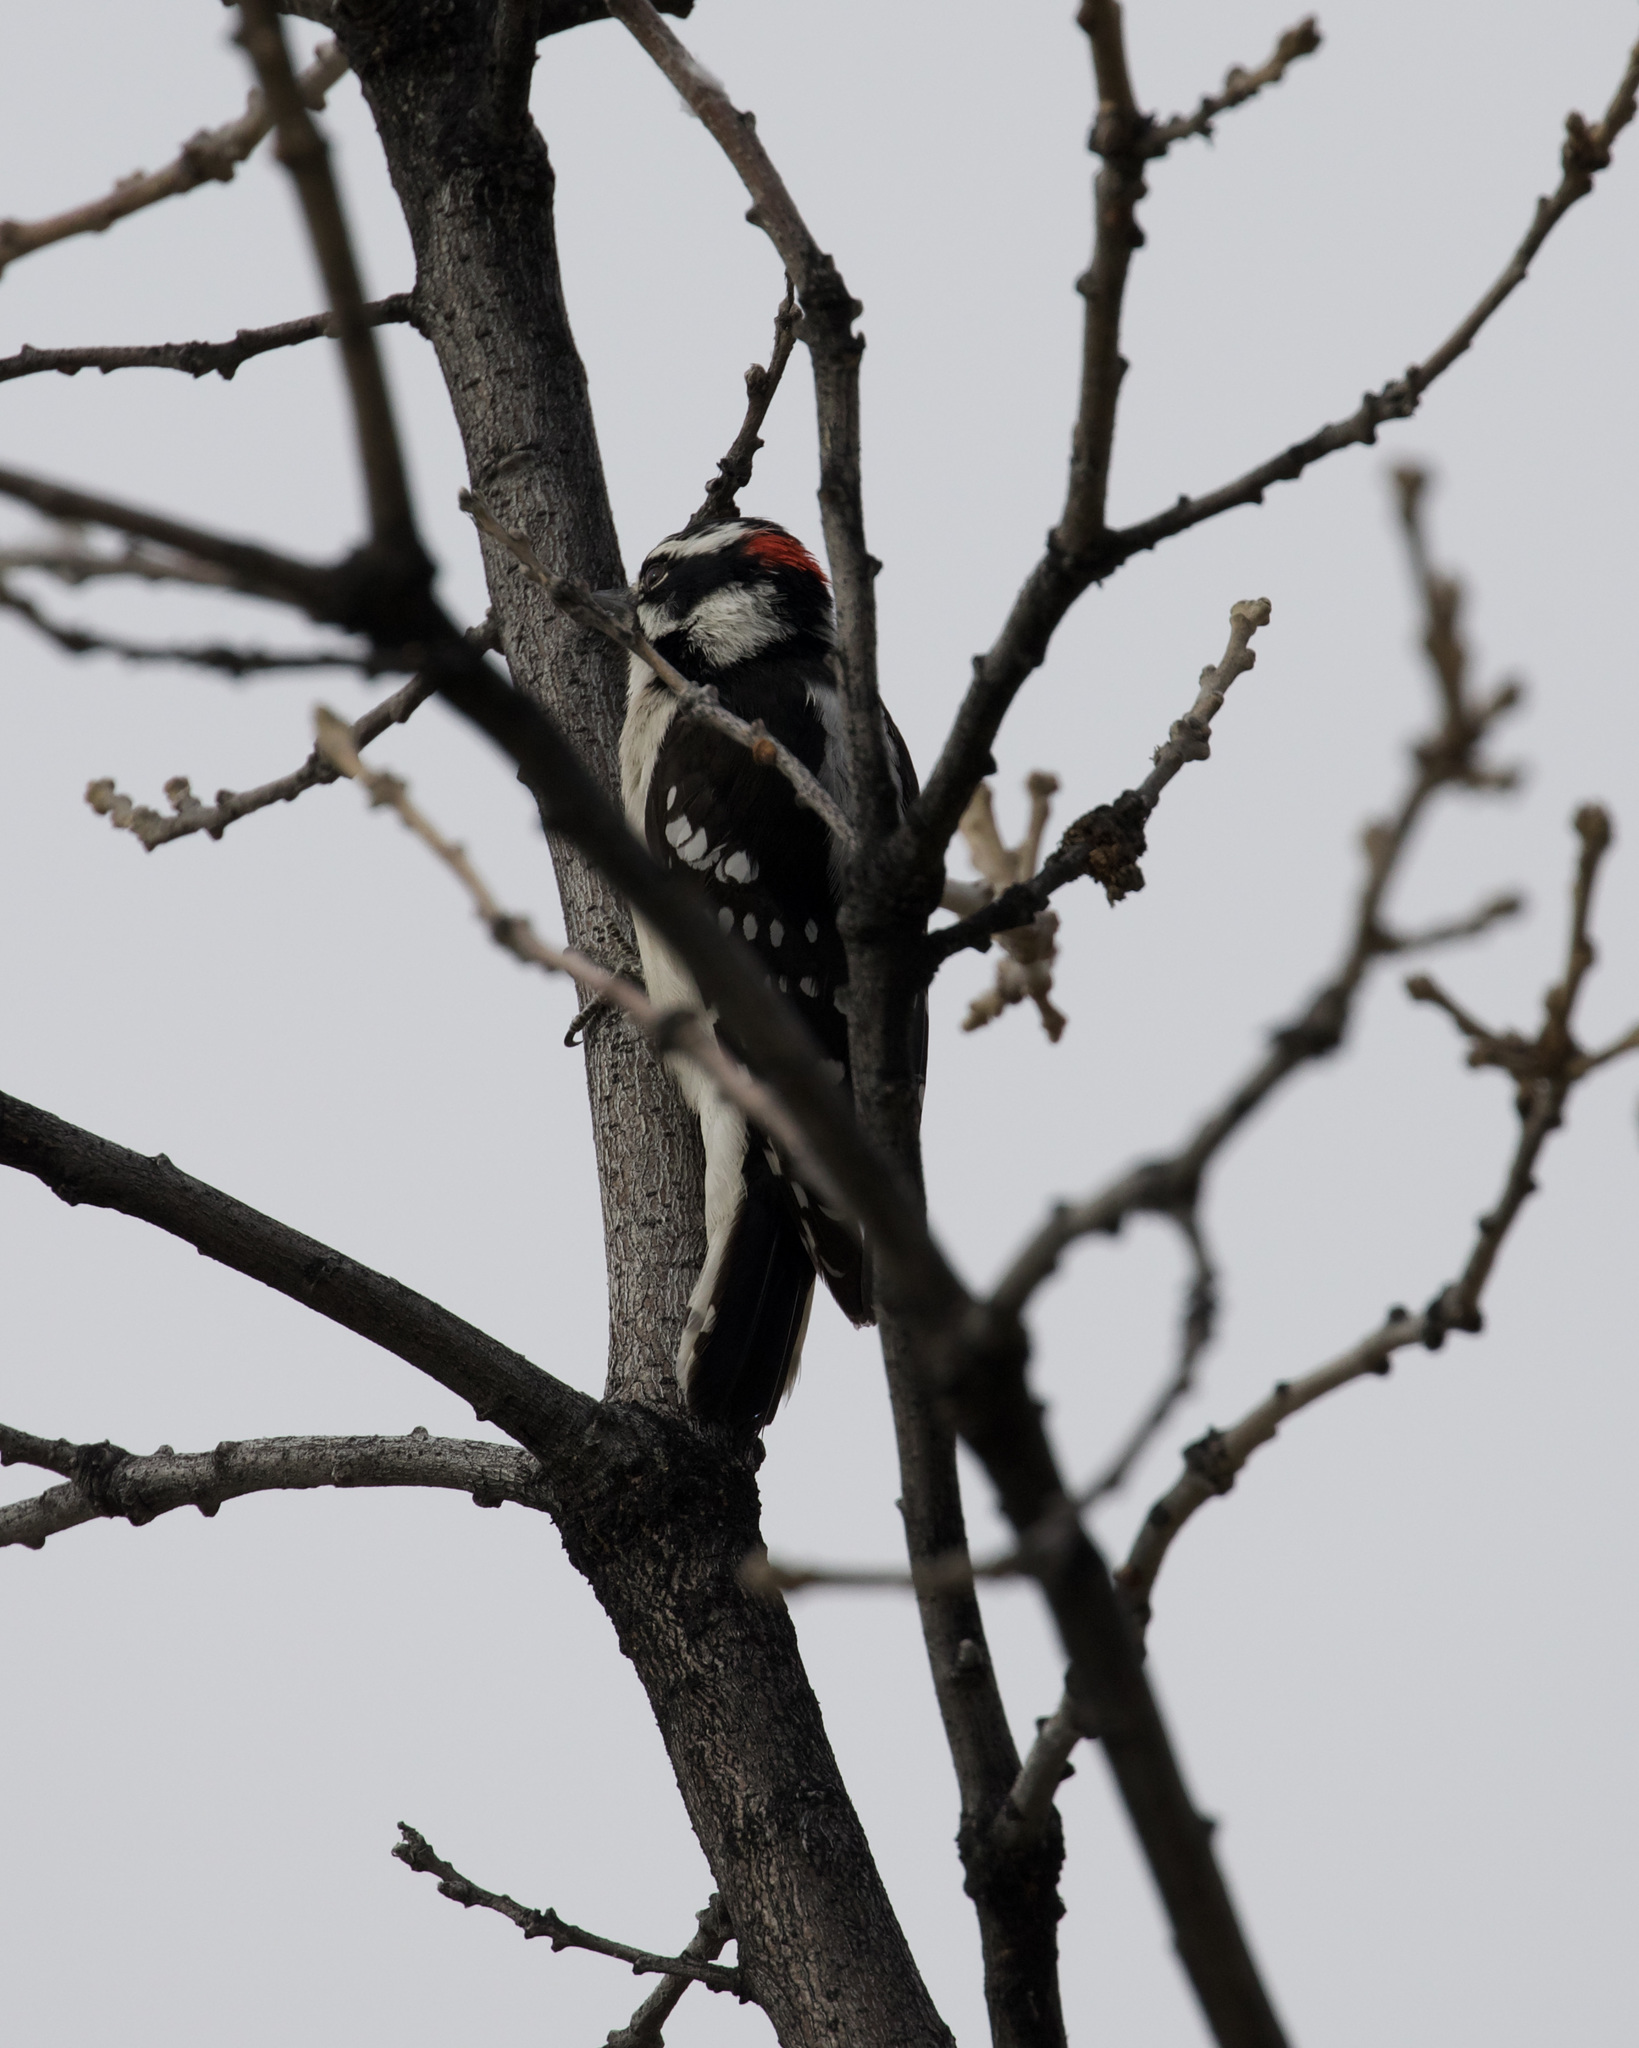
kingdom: Animalia
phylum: Chordata
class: Aves
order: Piciformes
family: Picidae
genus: Dryobates
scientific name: Dryobates pubescens
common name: Downy woodpecker
